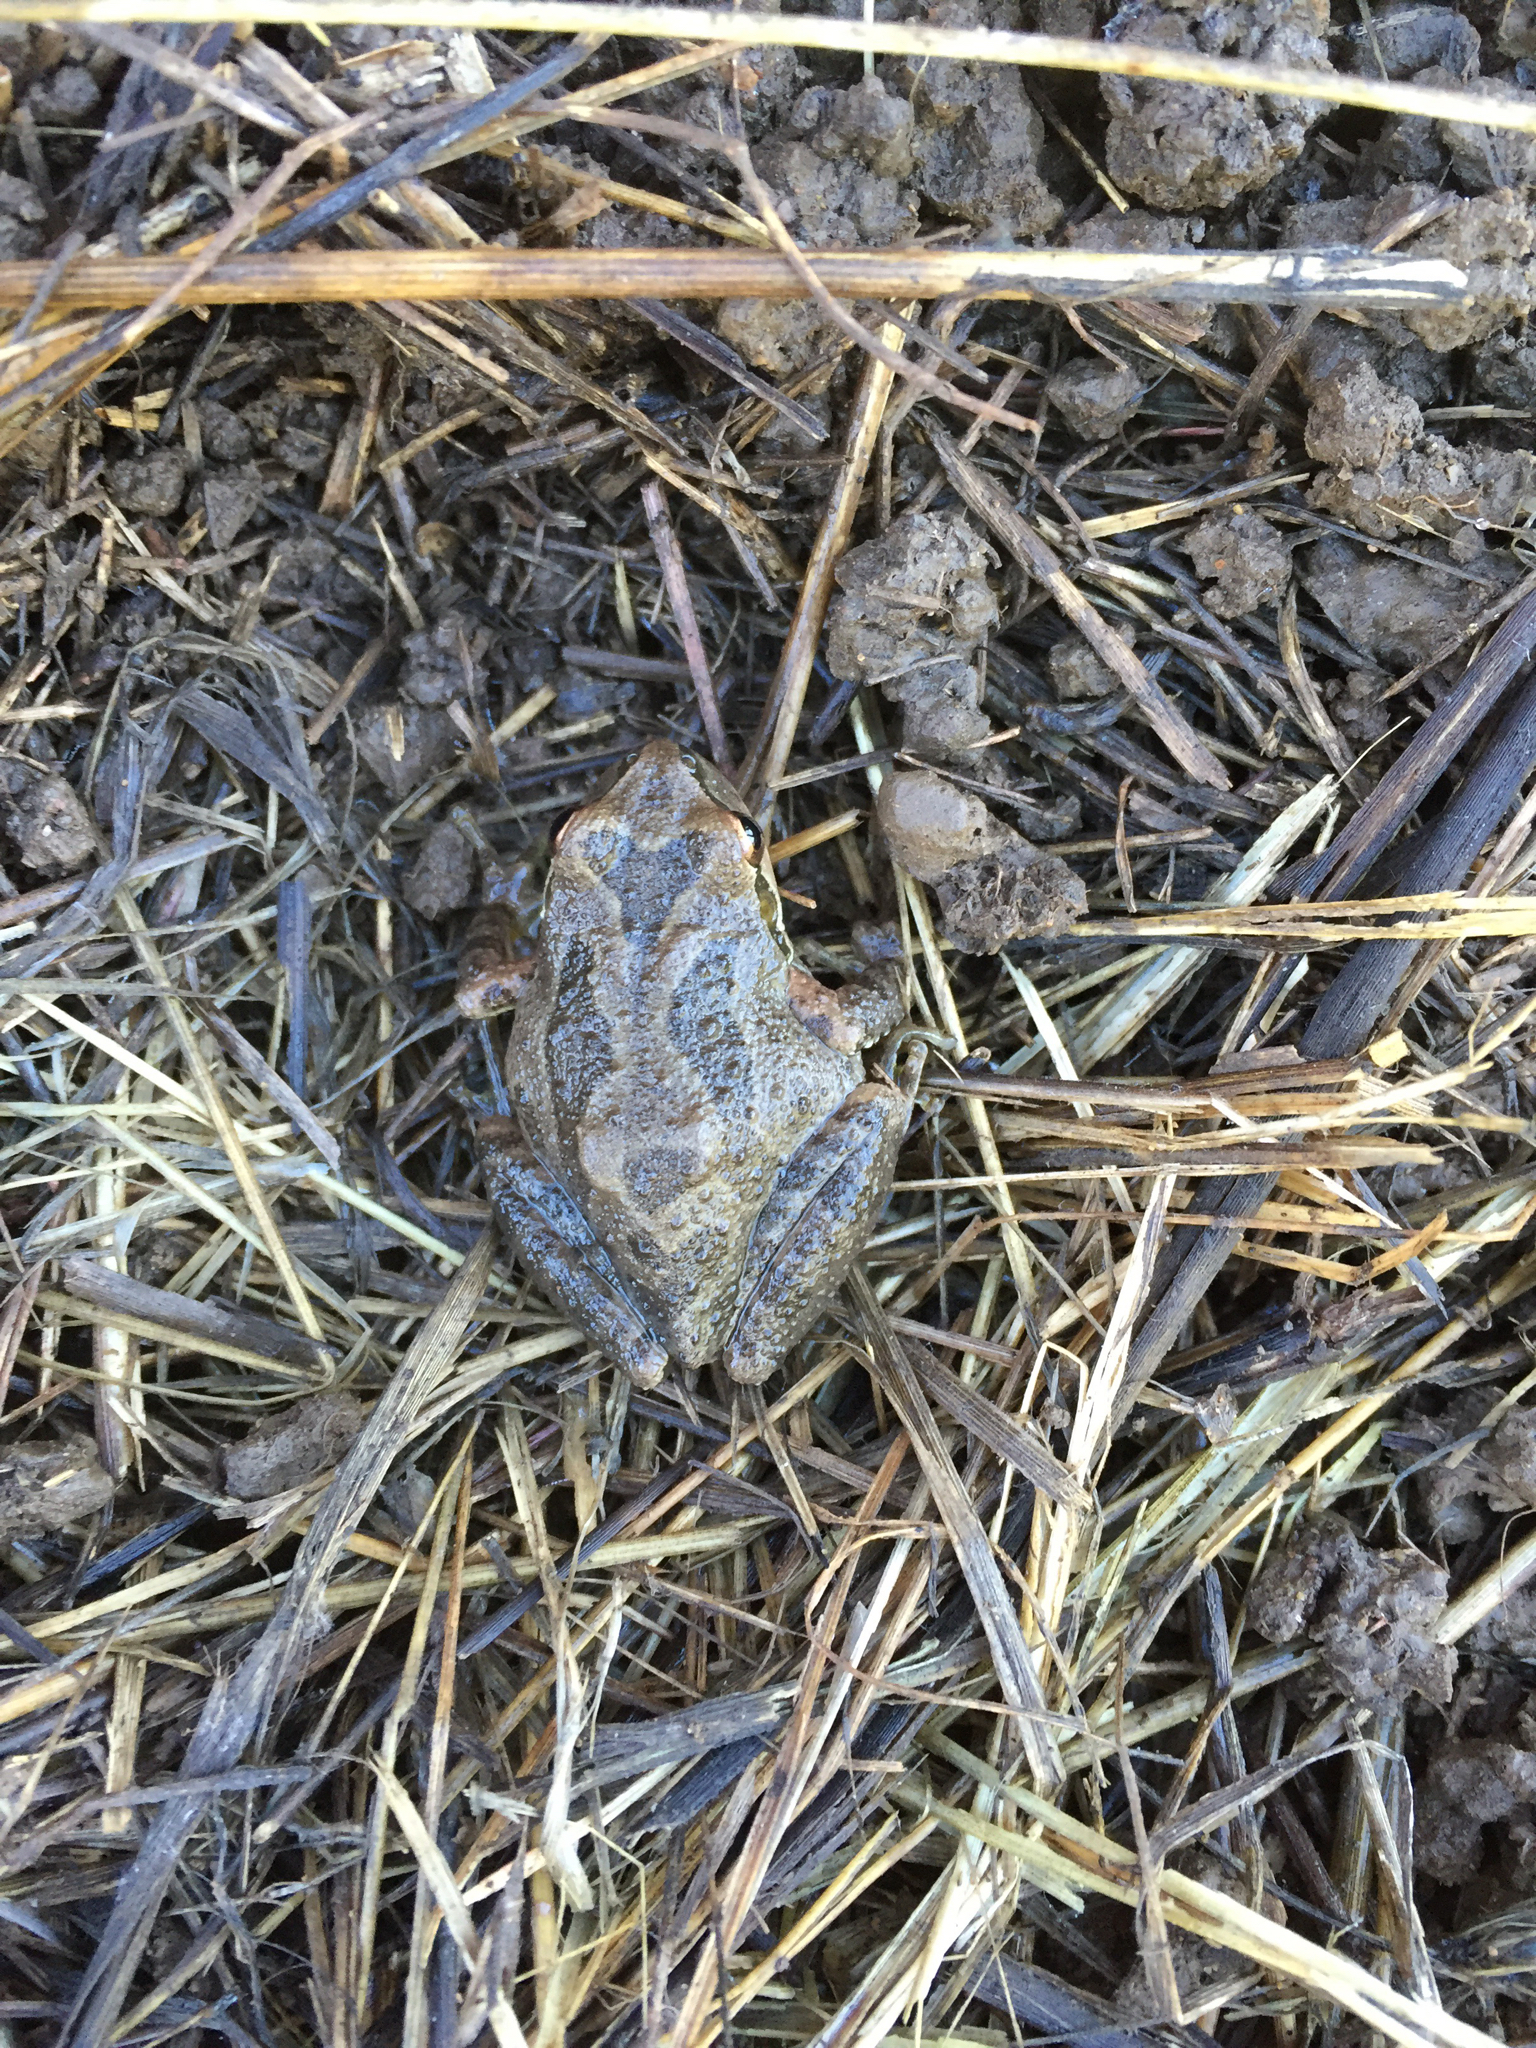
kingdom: Animalia
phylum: Chordata
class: Amphibia
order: Anura
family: Hylidae
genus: Pseudacris
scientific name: Pseudacris regilla
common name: Pacific chorus frog
